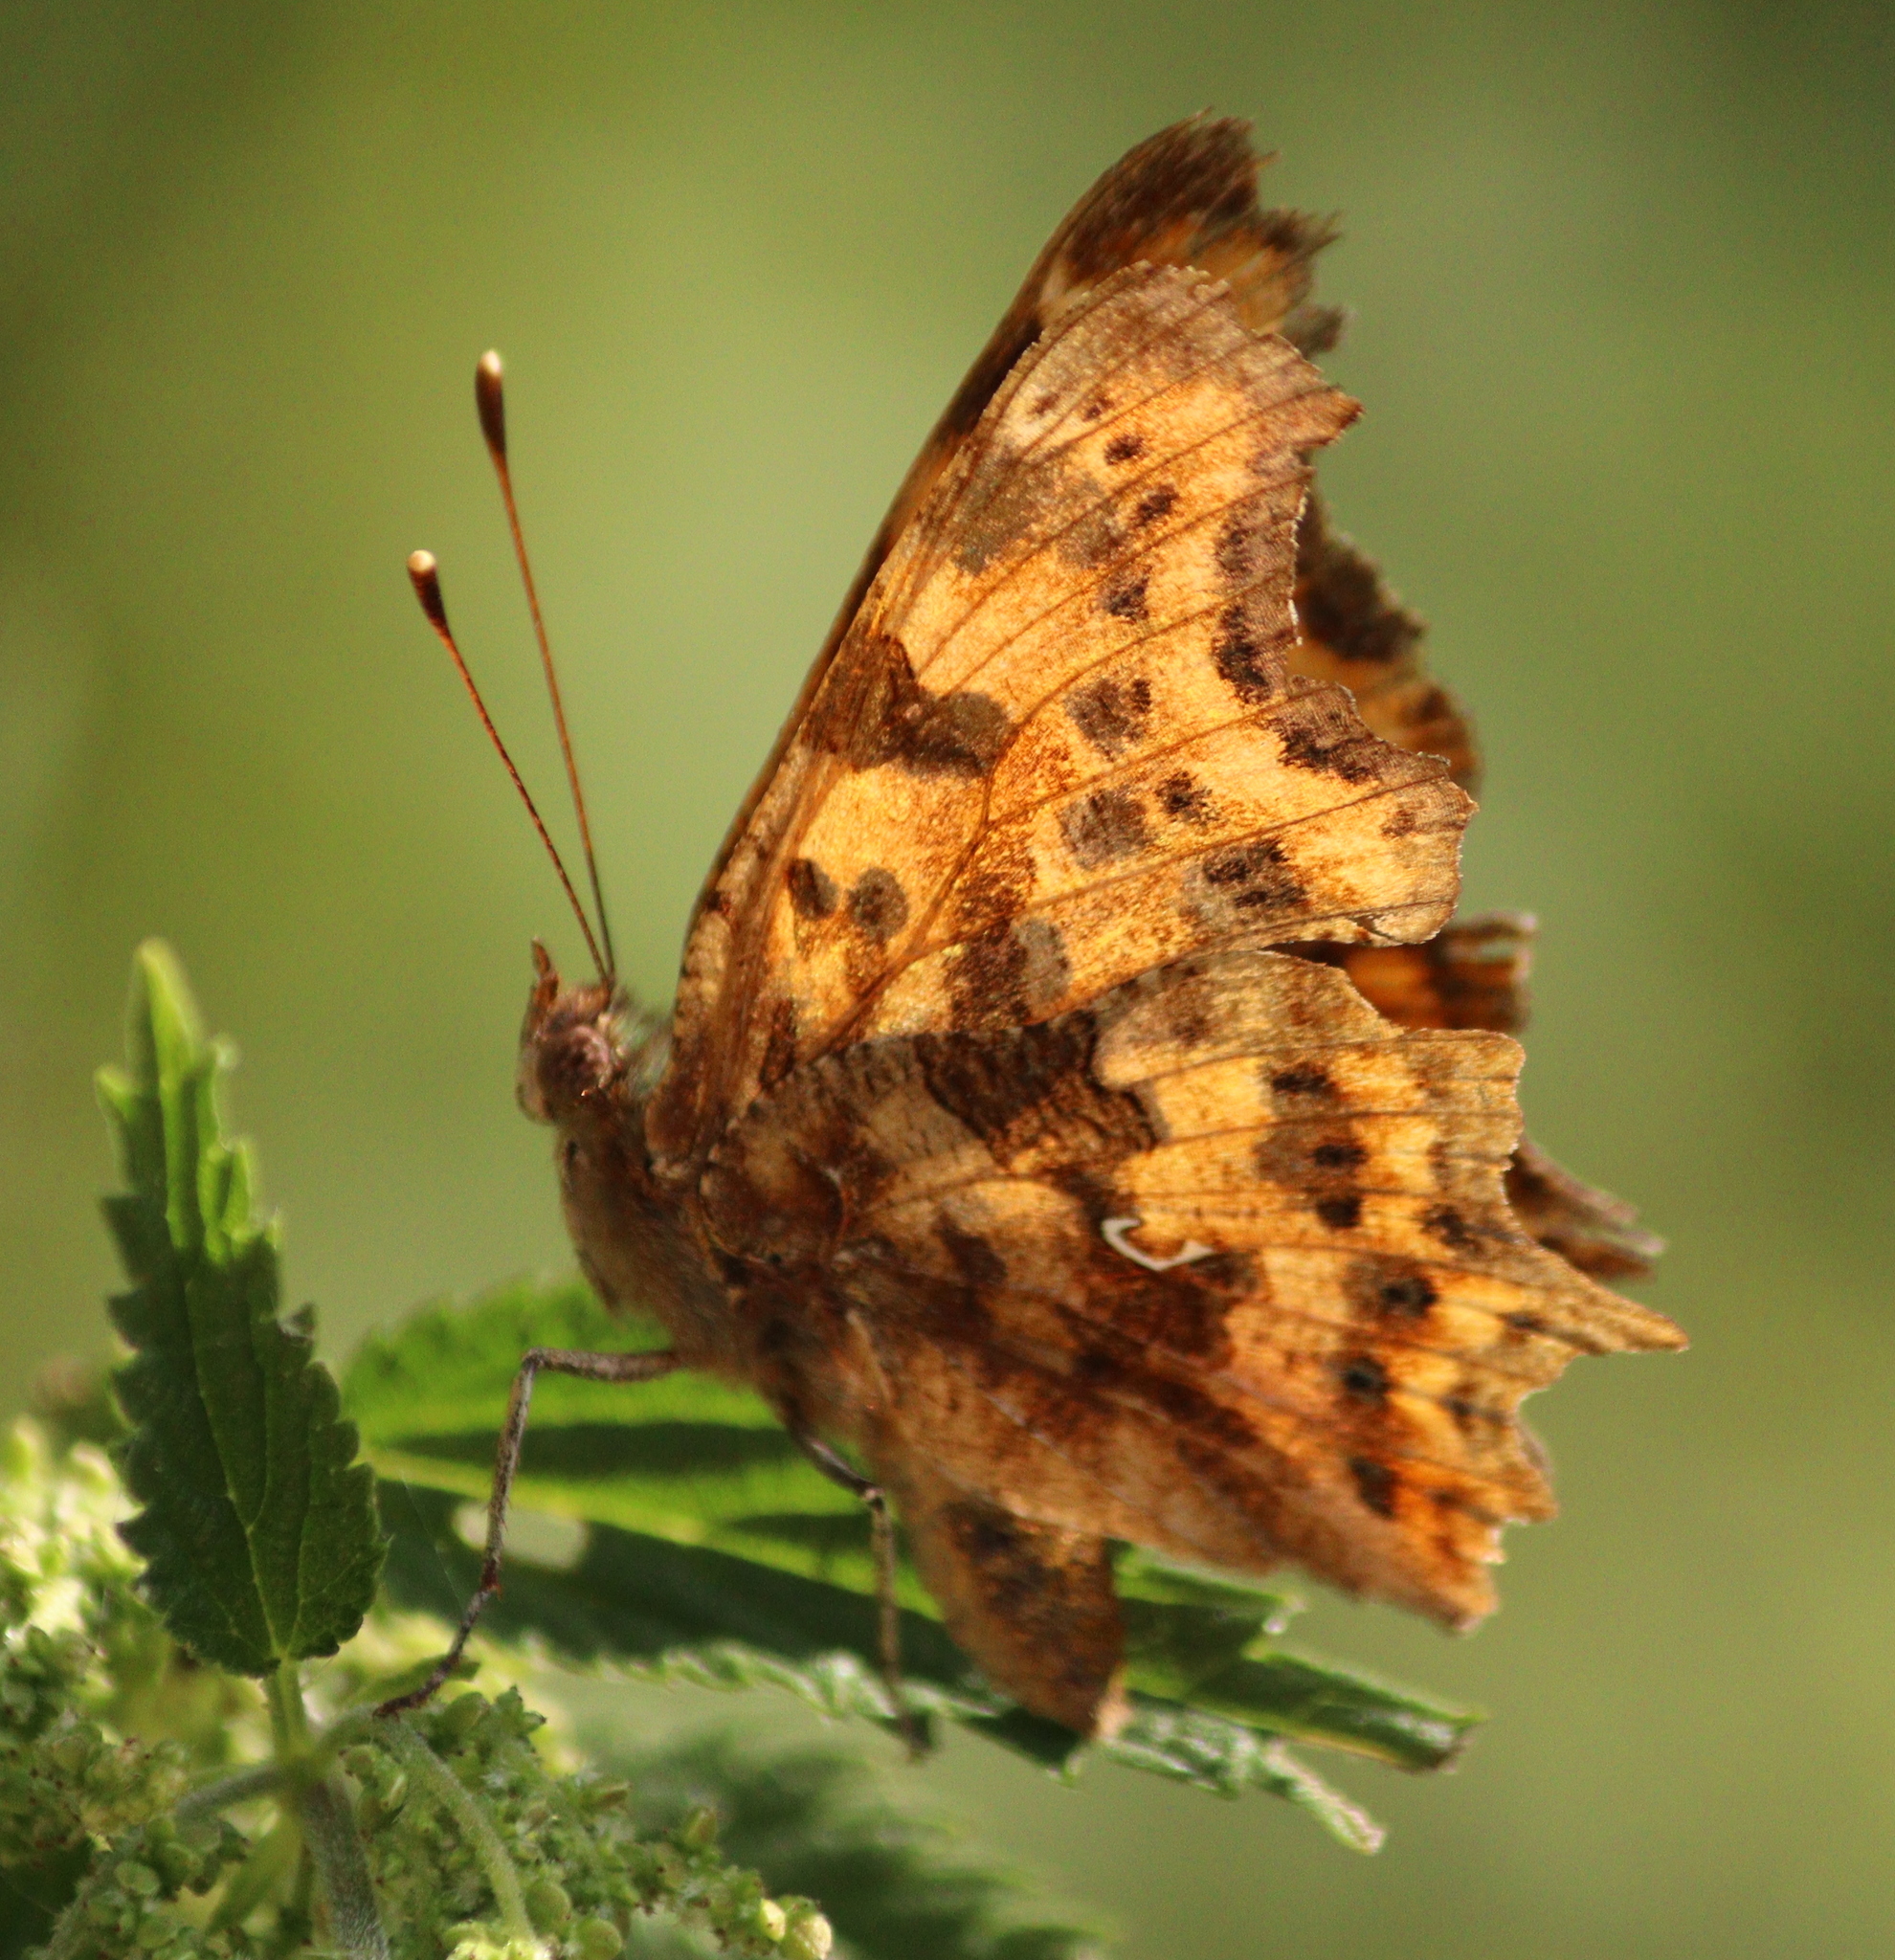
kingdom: Animalia
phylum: Arthropoda
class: Insecta
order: Lepidoptera
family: Nymphalidae
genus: Polygonia
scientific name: Polygonia c-album
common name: Comma
